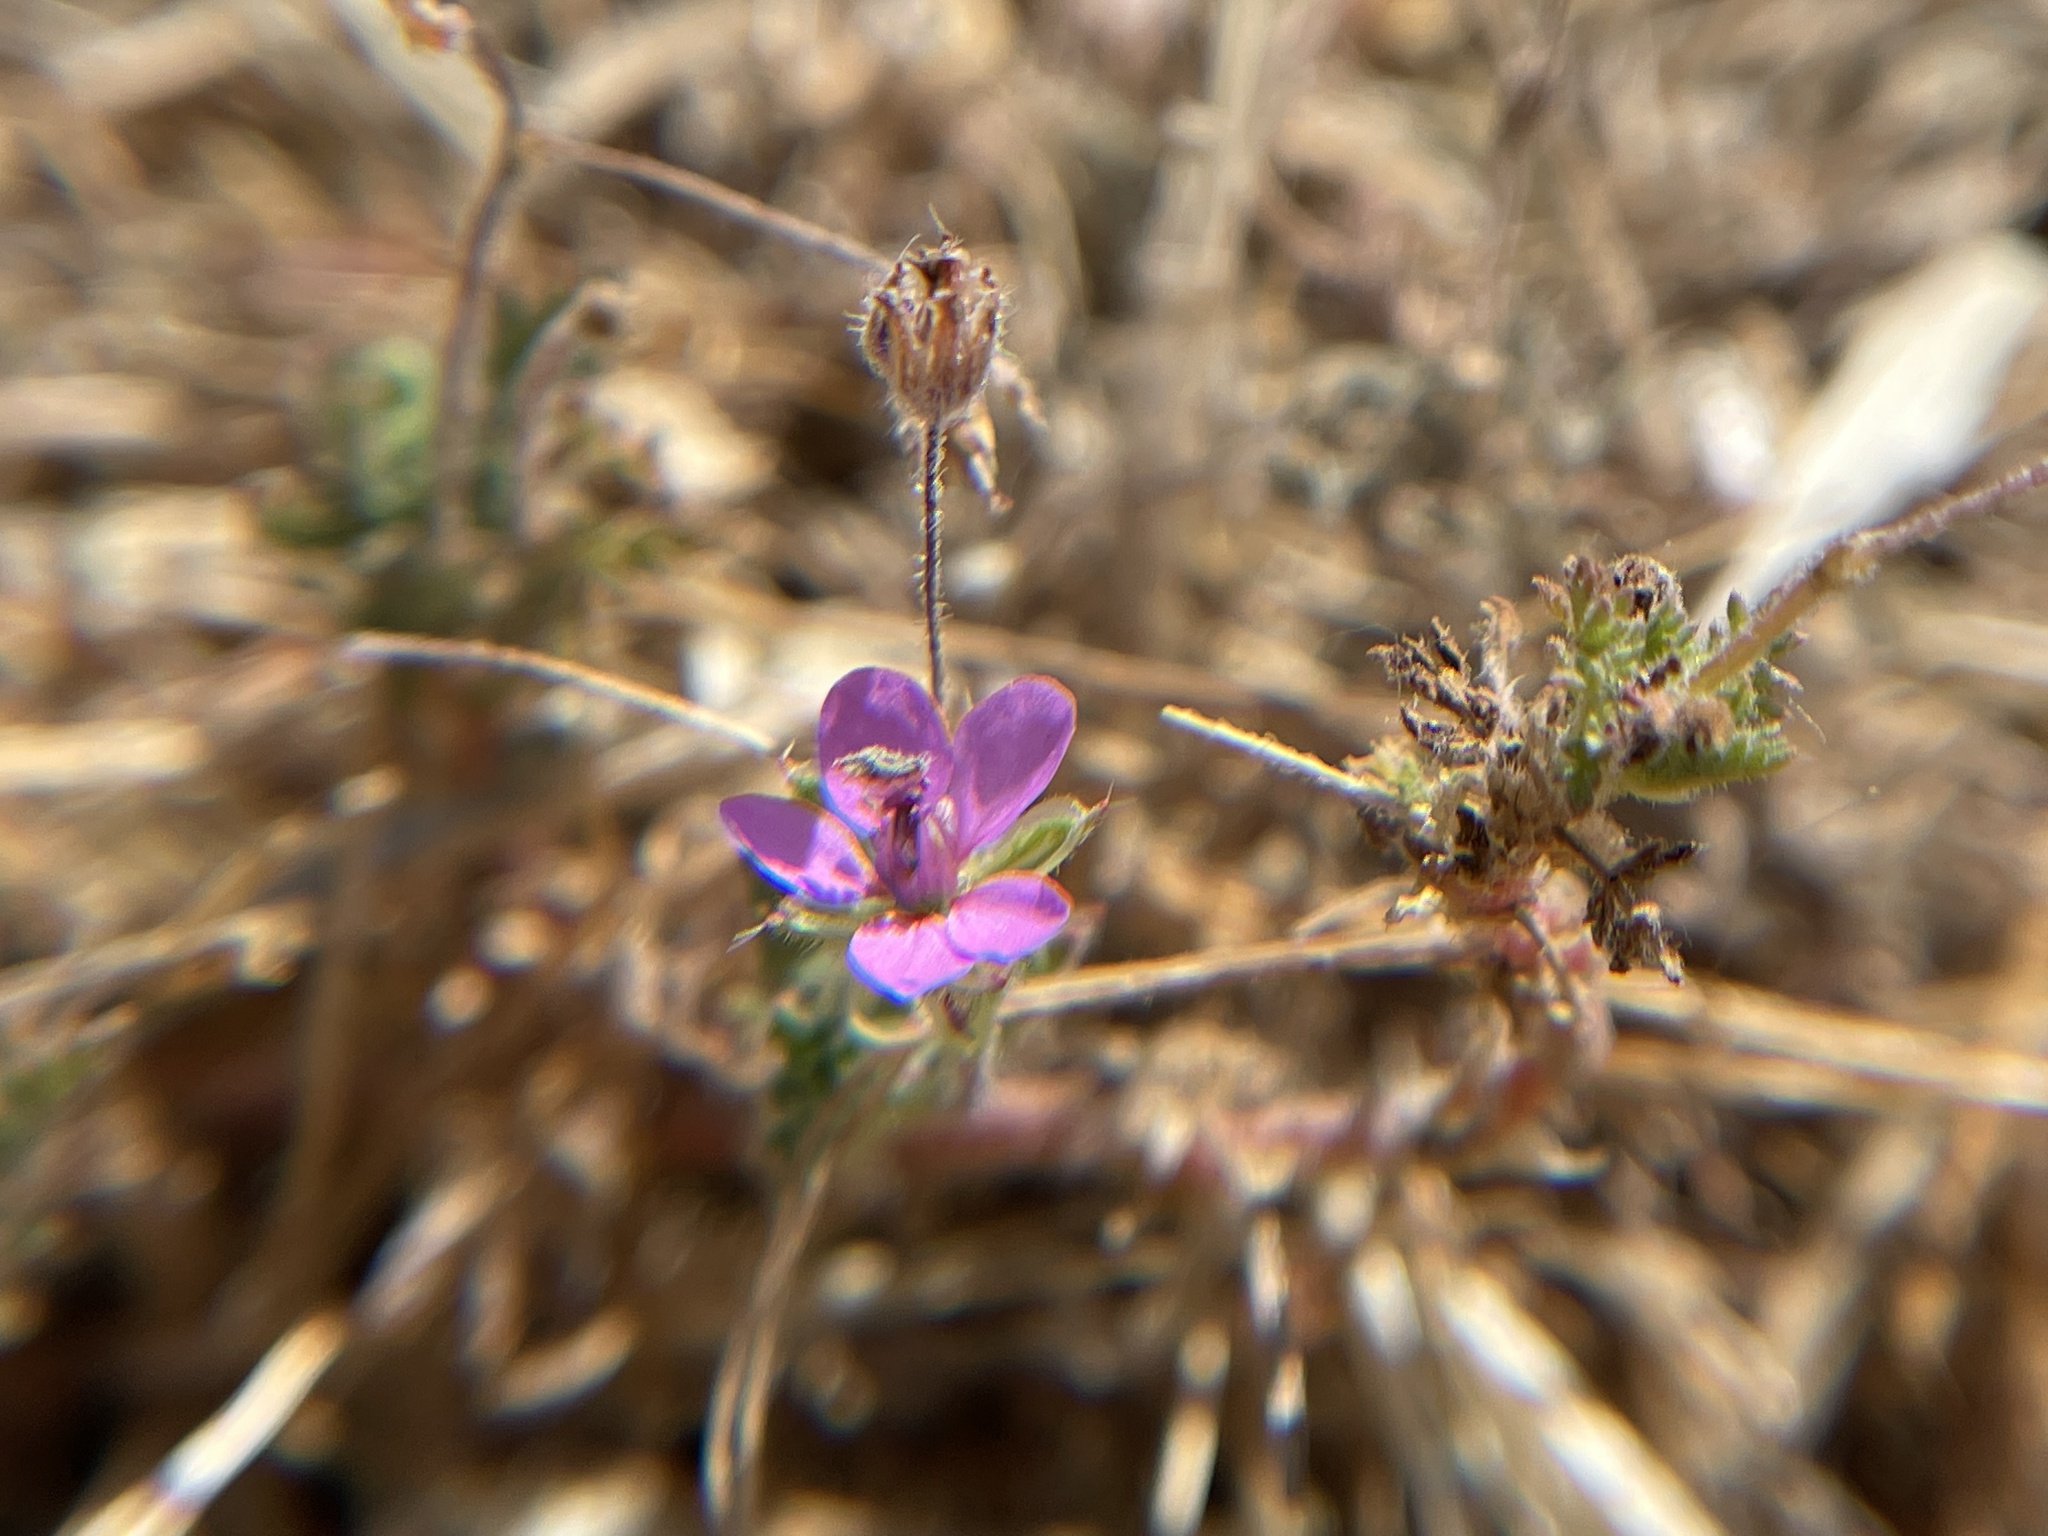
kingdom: Plantae
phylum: Tracheophyta
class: Magnoliopsida
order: Geraniales
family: Geraniaceae
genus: Erodium
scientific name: Erodium cicutarium
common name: Common stork's-bill
